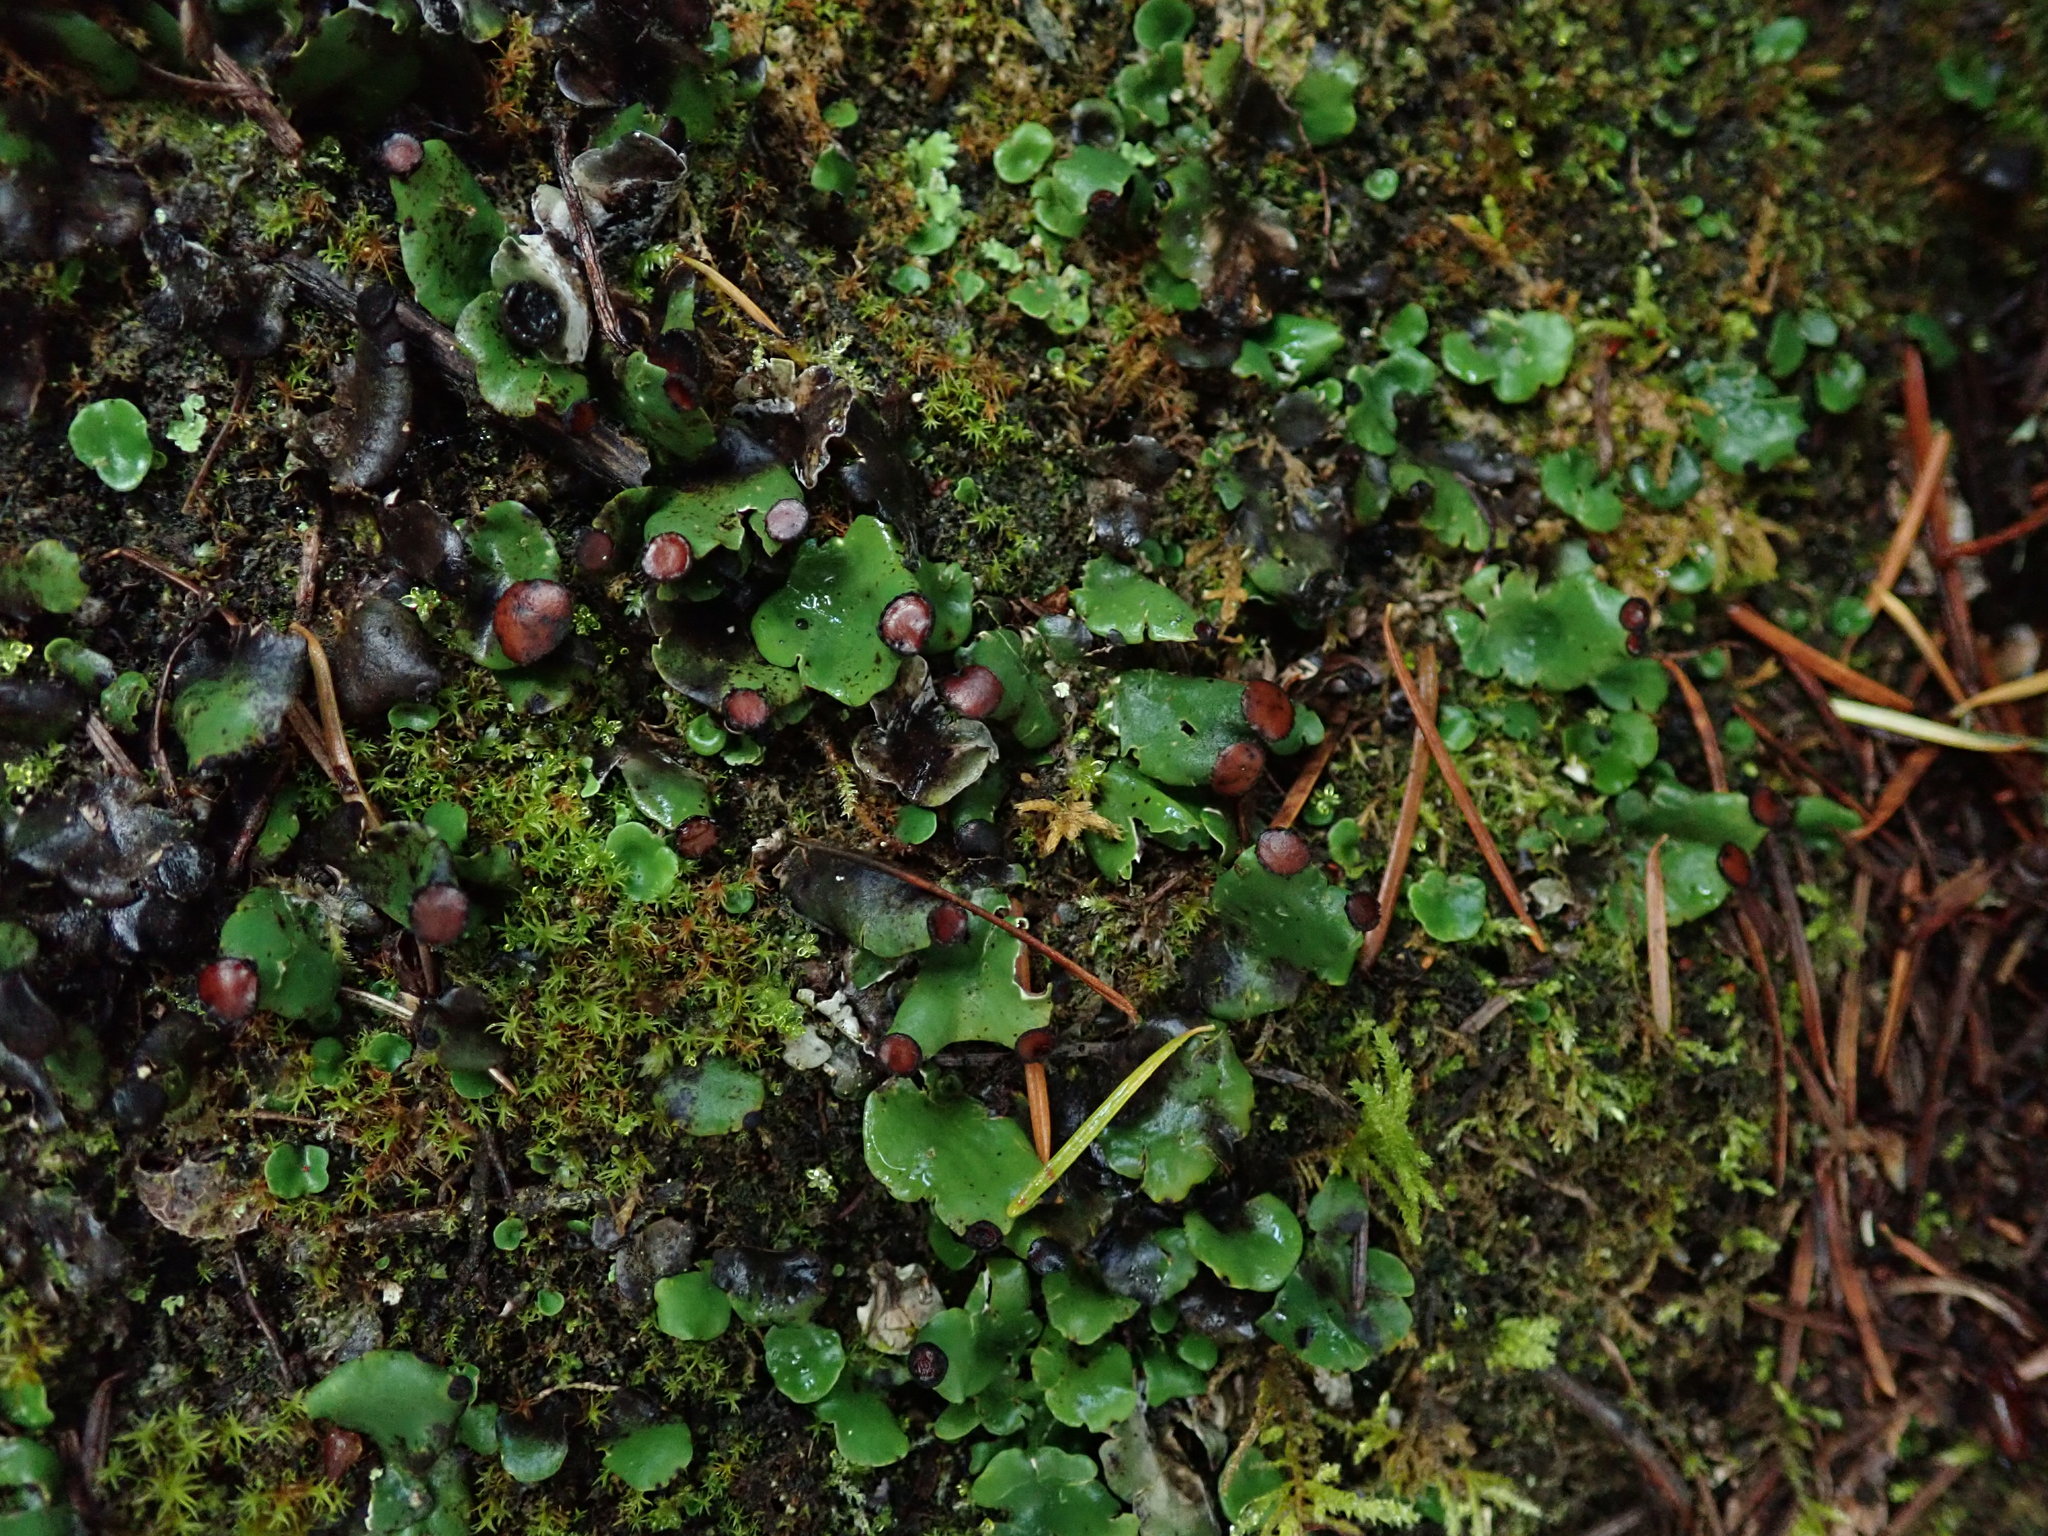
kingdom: Fungi
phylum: Ascomycota
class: Lecanoromycetes
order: Peltigerales
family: Peltigeraceae
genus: Peltigera
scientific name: Peltigera venosa
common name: Pixie gowns lichen
